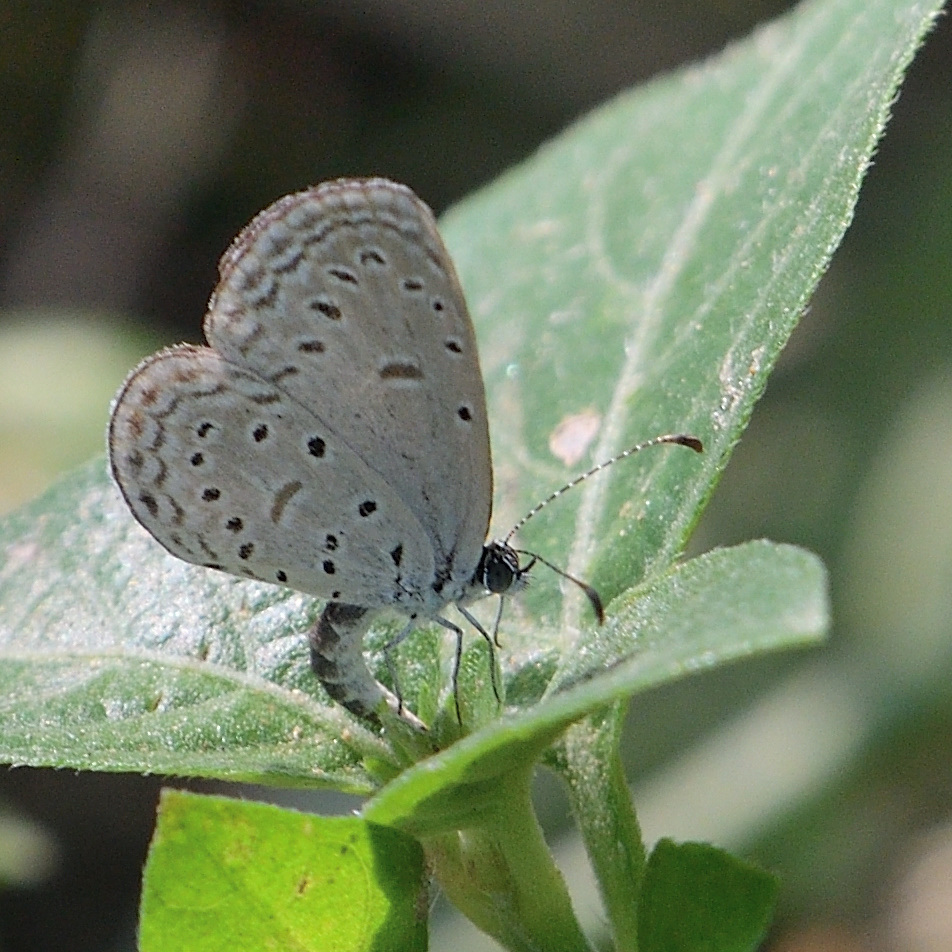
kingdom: Animalia
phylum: Arthropoda
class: Insecta
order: Lepidoptera
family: Lycaenidae
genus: Zizula
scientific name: Zizula hylax
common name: Gaika blue
